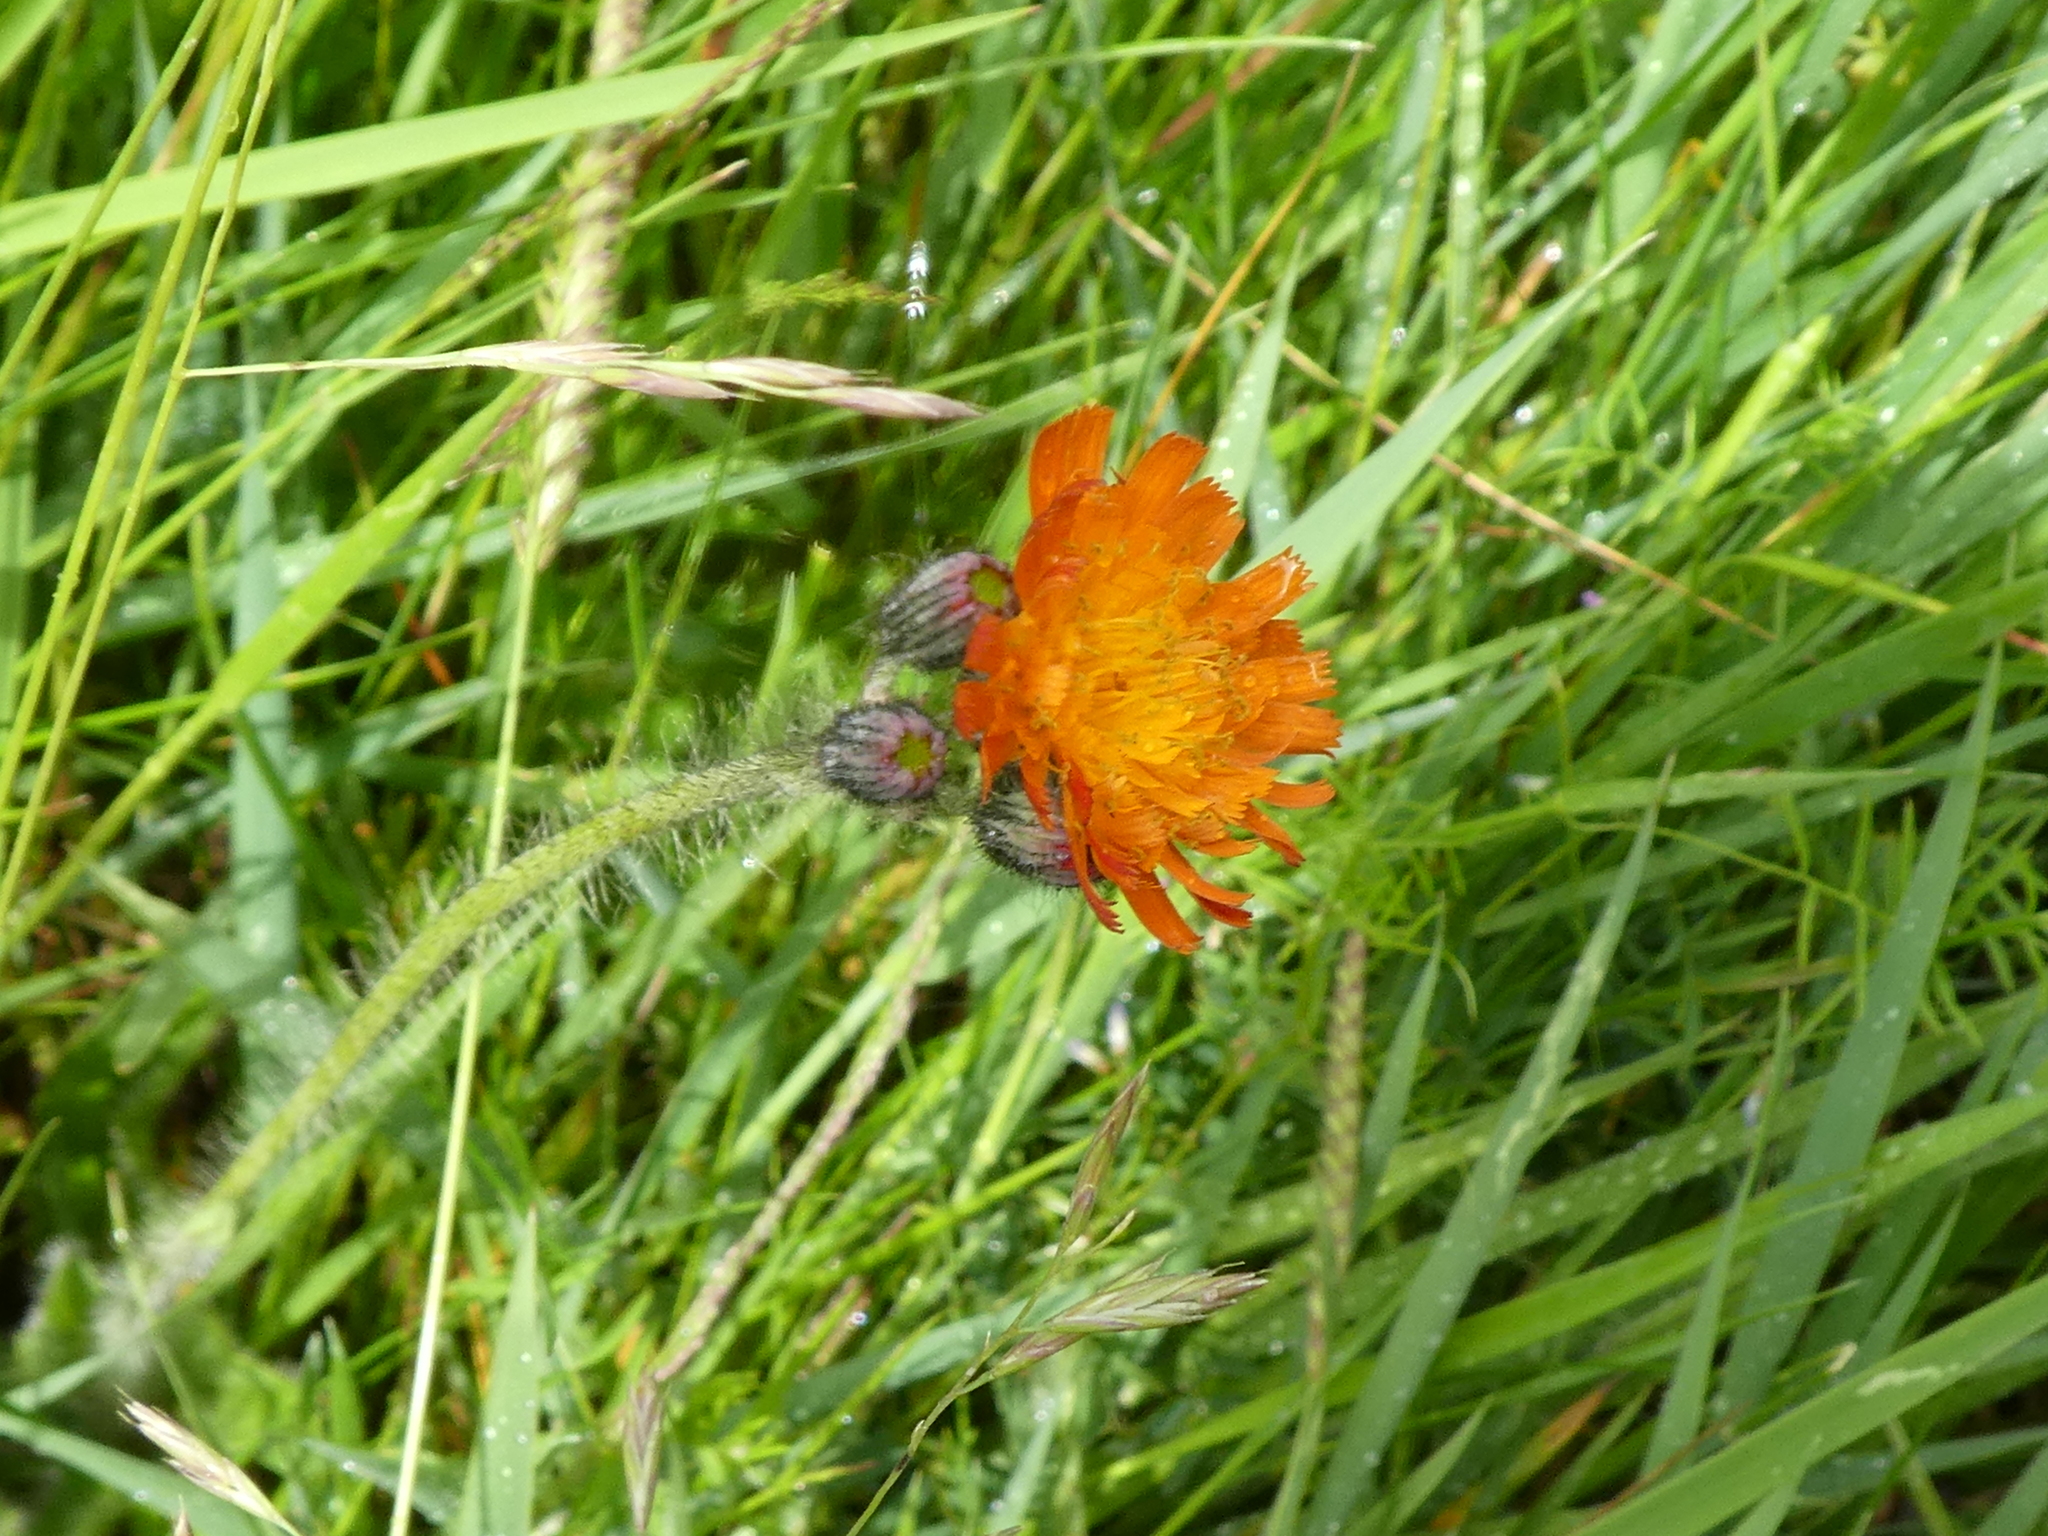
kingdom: Plantae
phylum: Tracheophyta
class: Magnoliopsida
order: Asterales
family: Asteraceae
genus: Pilosella
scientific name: Pilosella aurantiaca
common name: Fox-and-cubs
